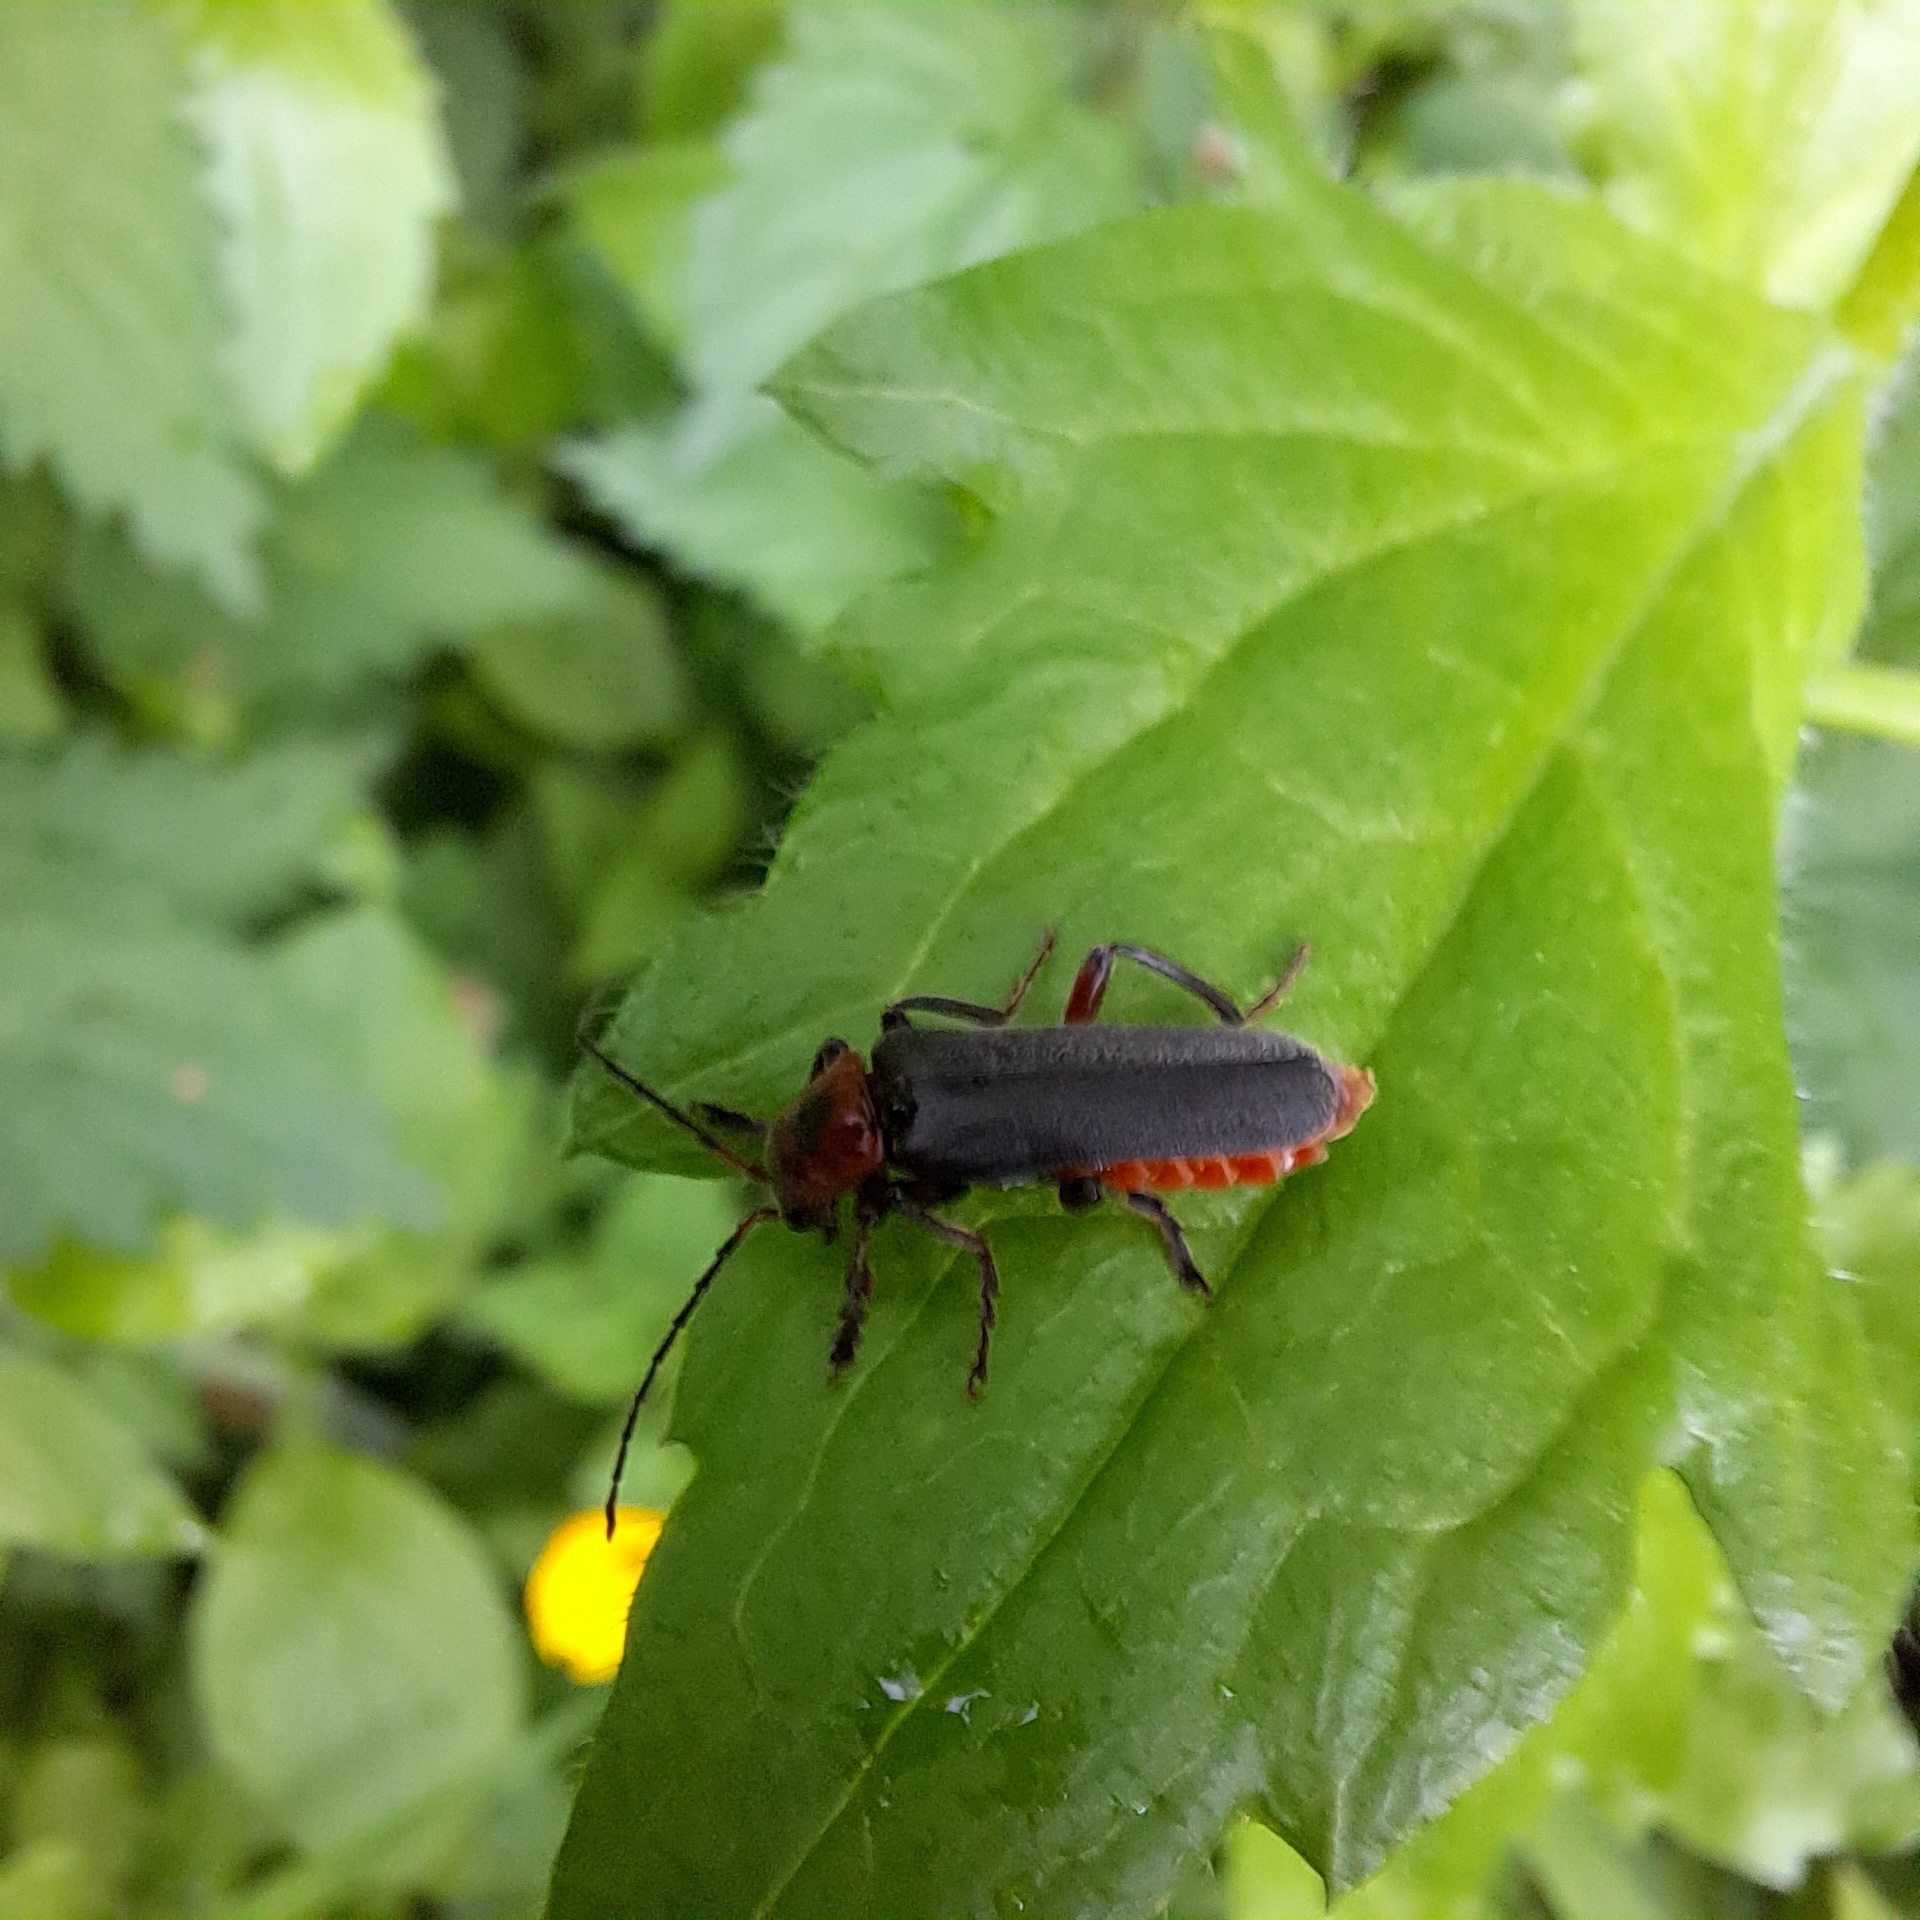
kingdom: Animalia
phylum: Arthropoda
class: Insecta
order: Coleoptera
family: Cantharidae
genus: Cantharis
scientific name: Cantharis rustica
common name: Soldier beetle
